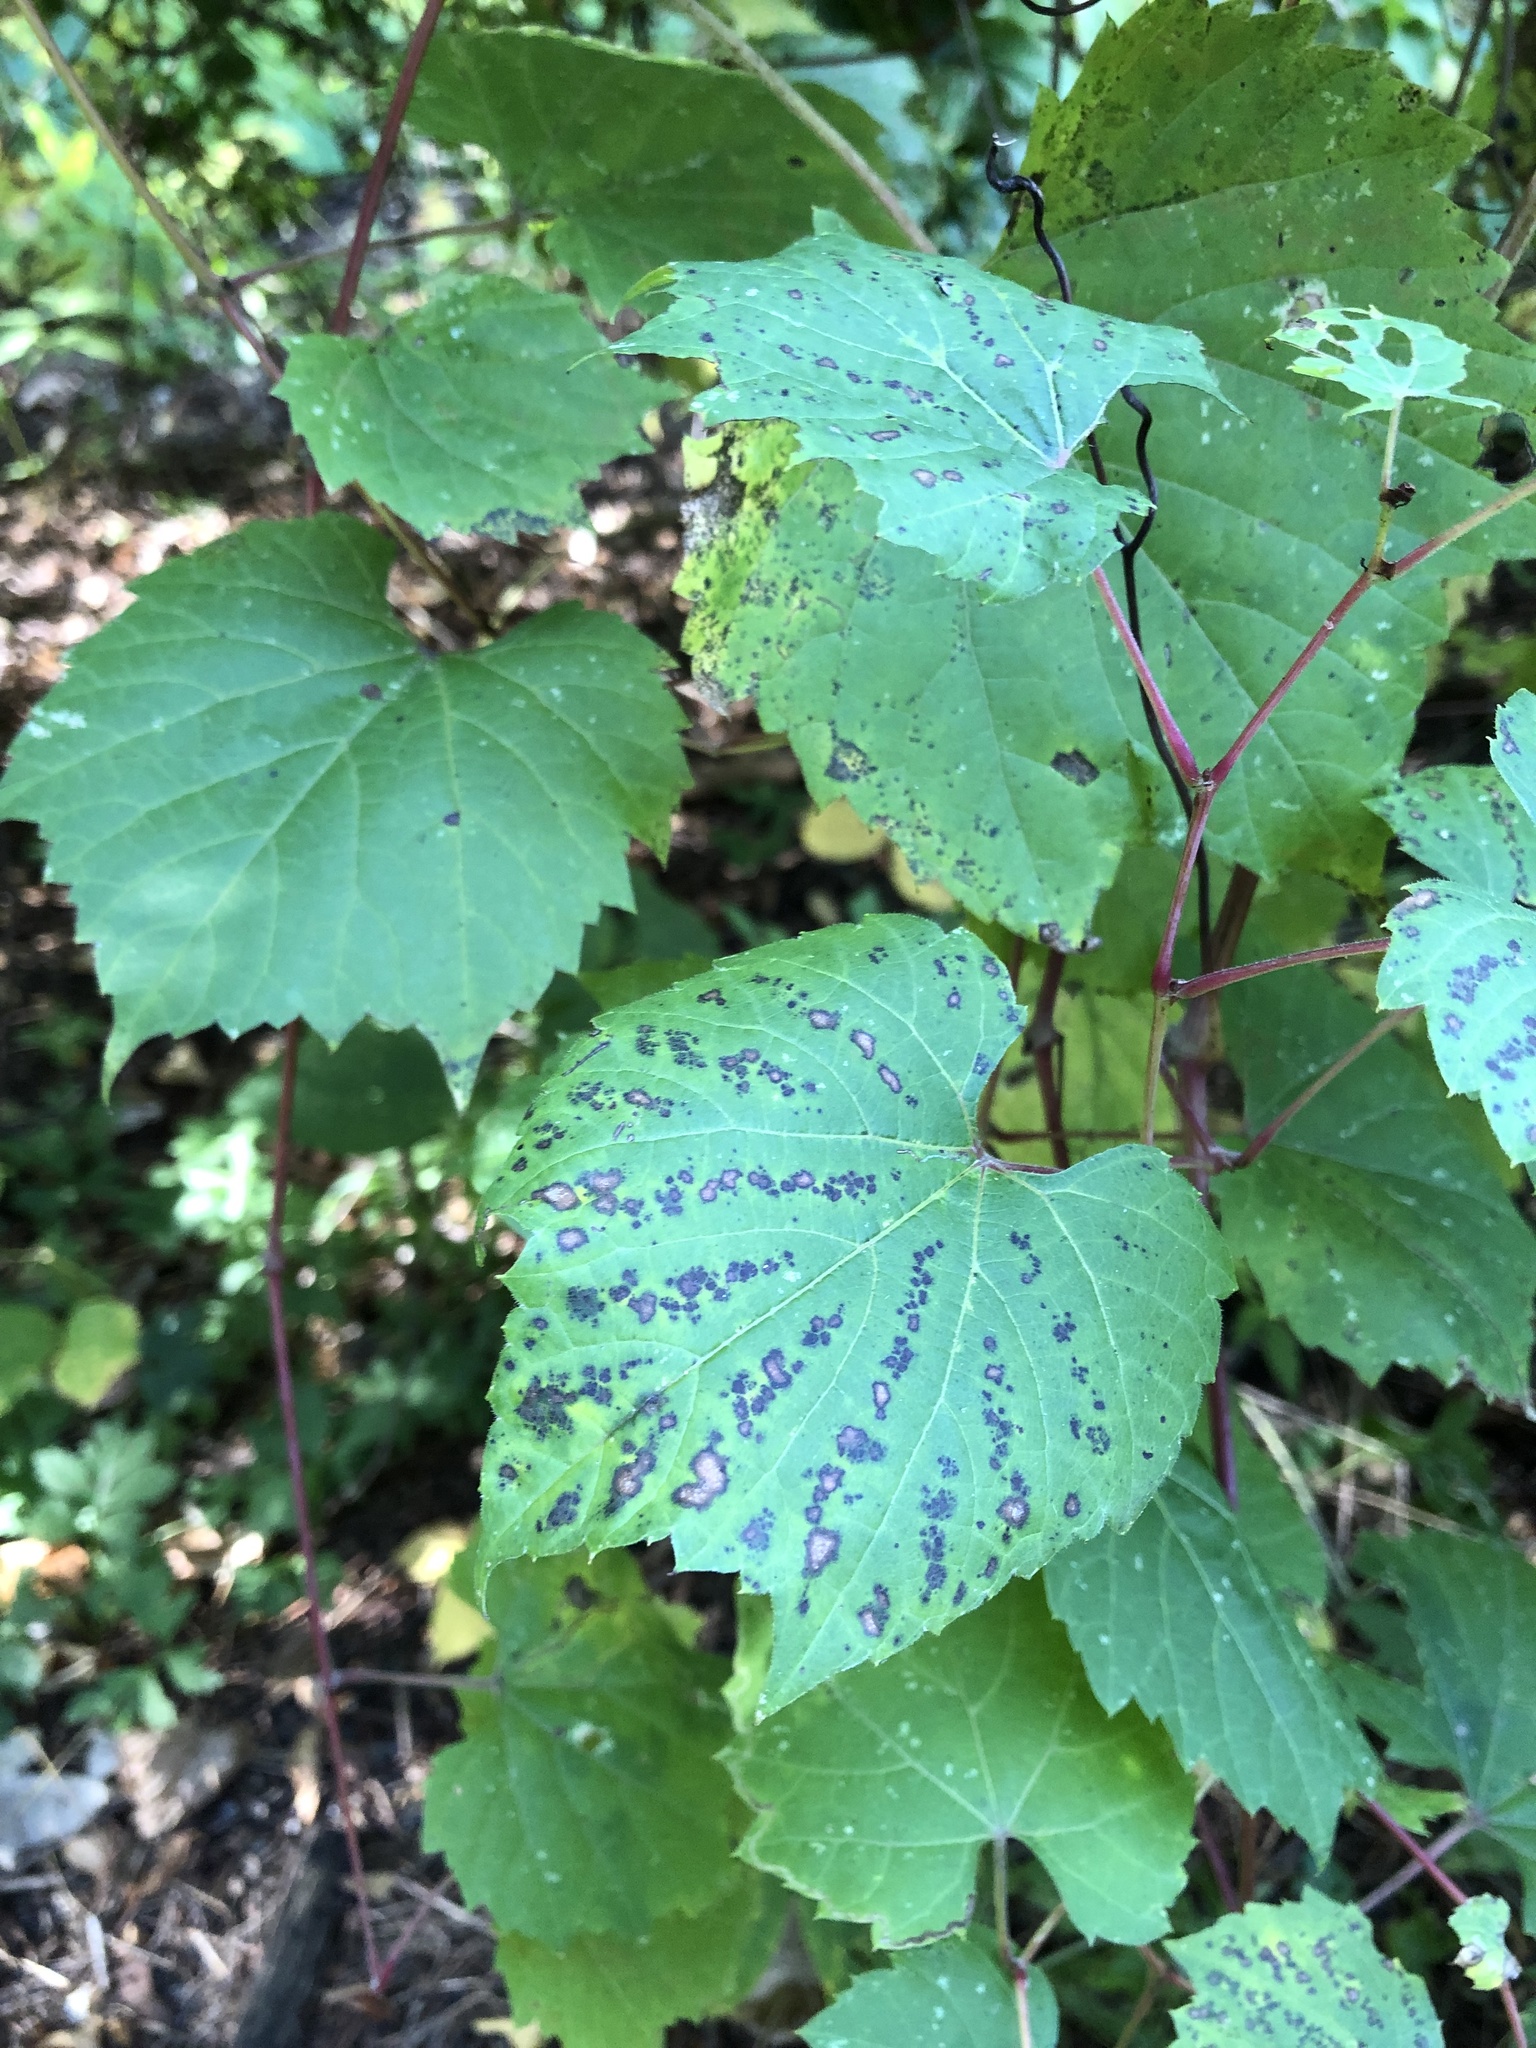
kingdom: Plantae
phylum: Tracheophyta
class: Magnoliopsida
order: Vitales
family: Vitaceae
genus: Vitis
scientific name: Vitis riparia
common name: Frost grape
